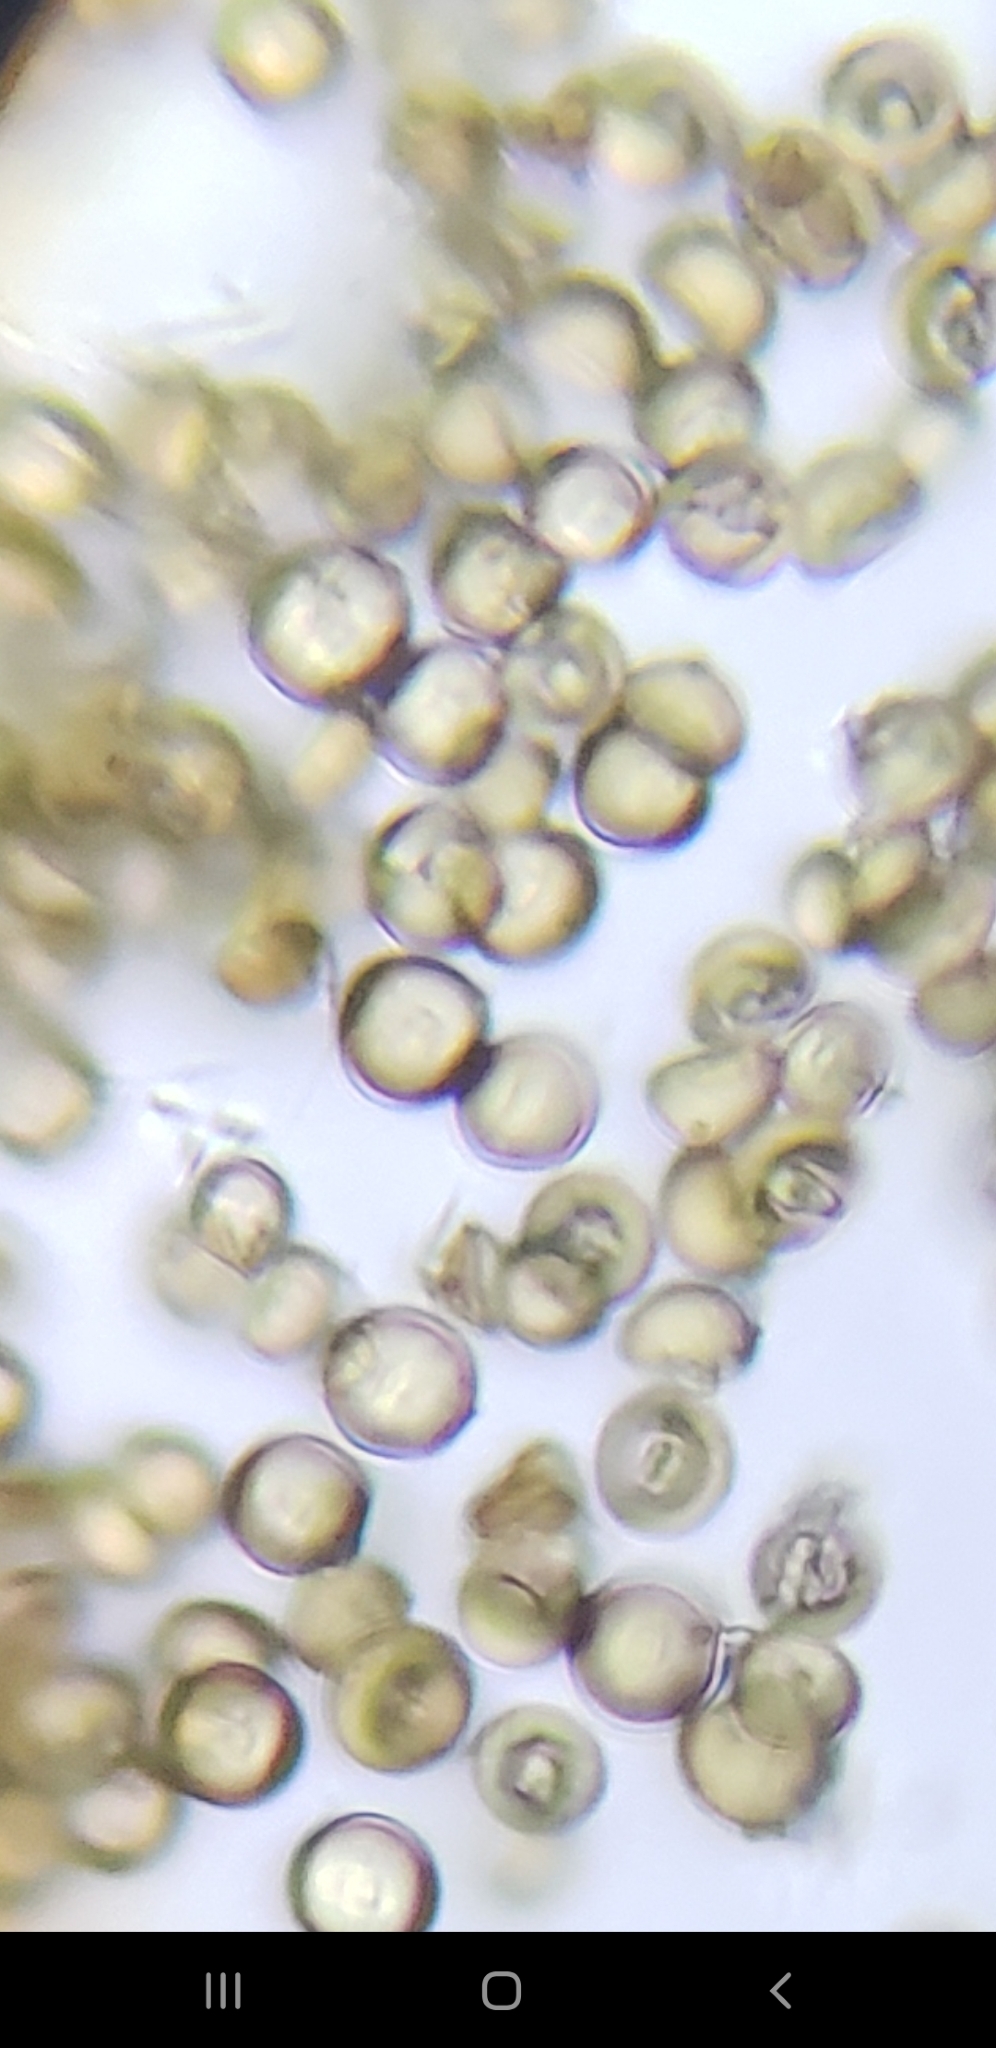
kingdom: Fungi
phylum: Basidiomycota
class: Atractiellomycetes
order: Atractiellales
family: Phleogenaceae
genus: Phleogena
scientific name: Phleogena faginea
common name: Fenugreek stalkball
